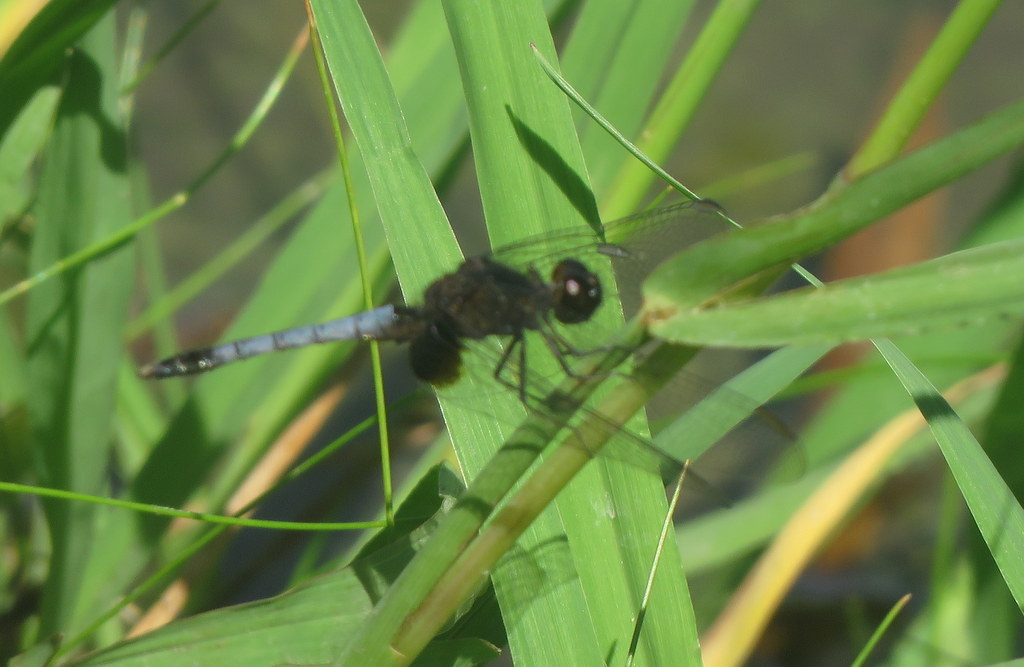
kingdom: Animalia
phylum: Arthropoda
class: Insecta
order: Odonata
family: Libellulidae
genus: Erythrodiplax
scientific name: Erythrodiplax media
